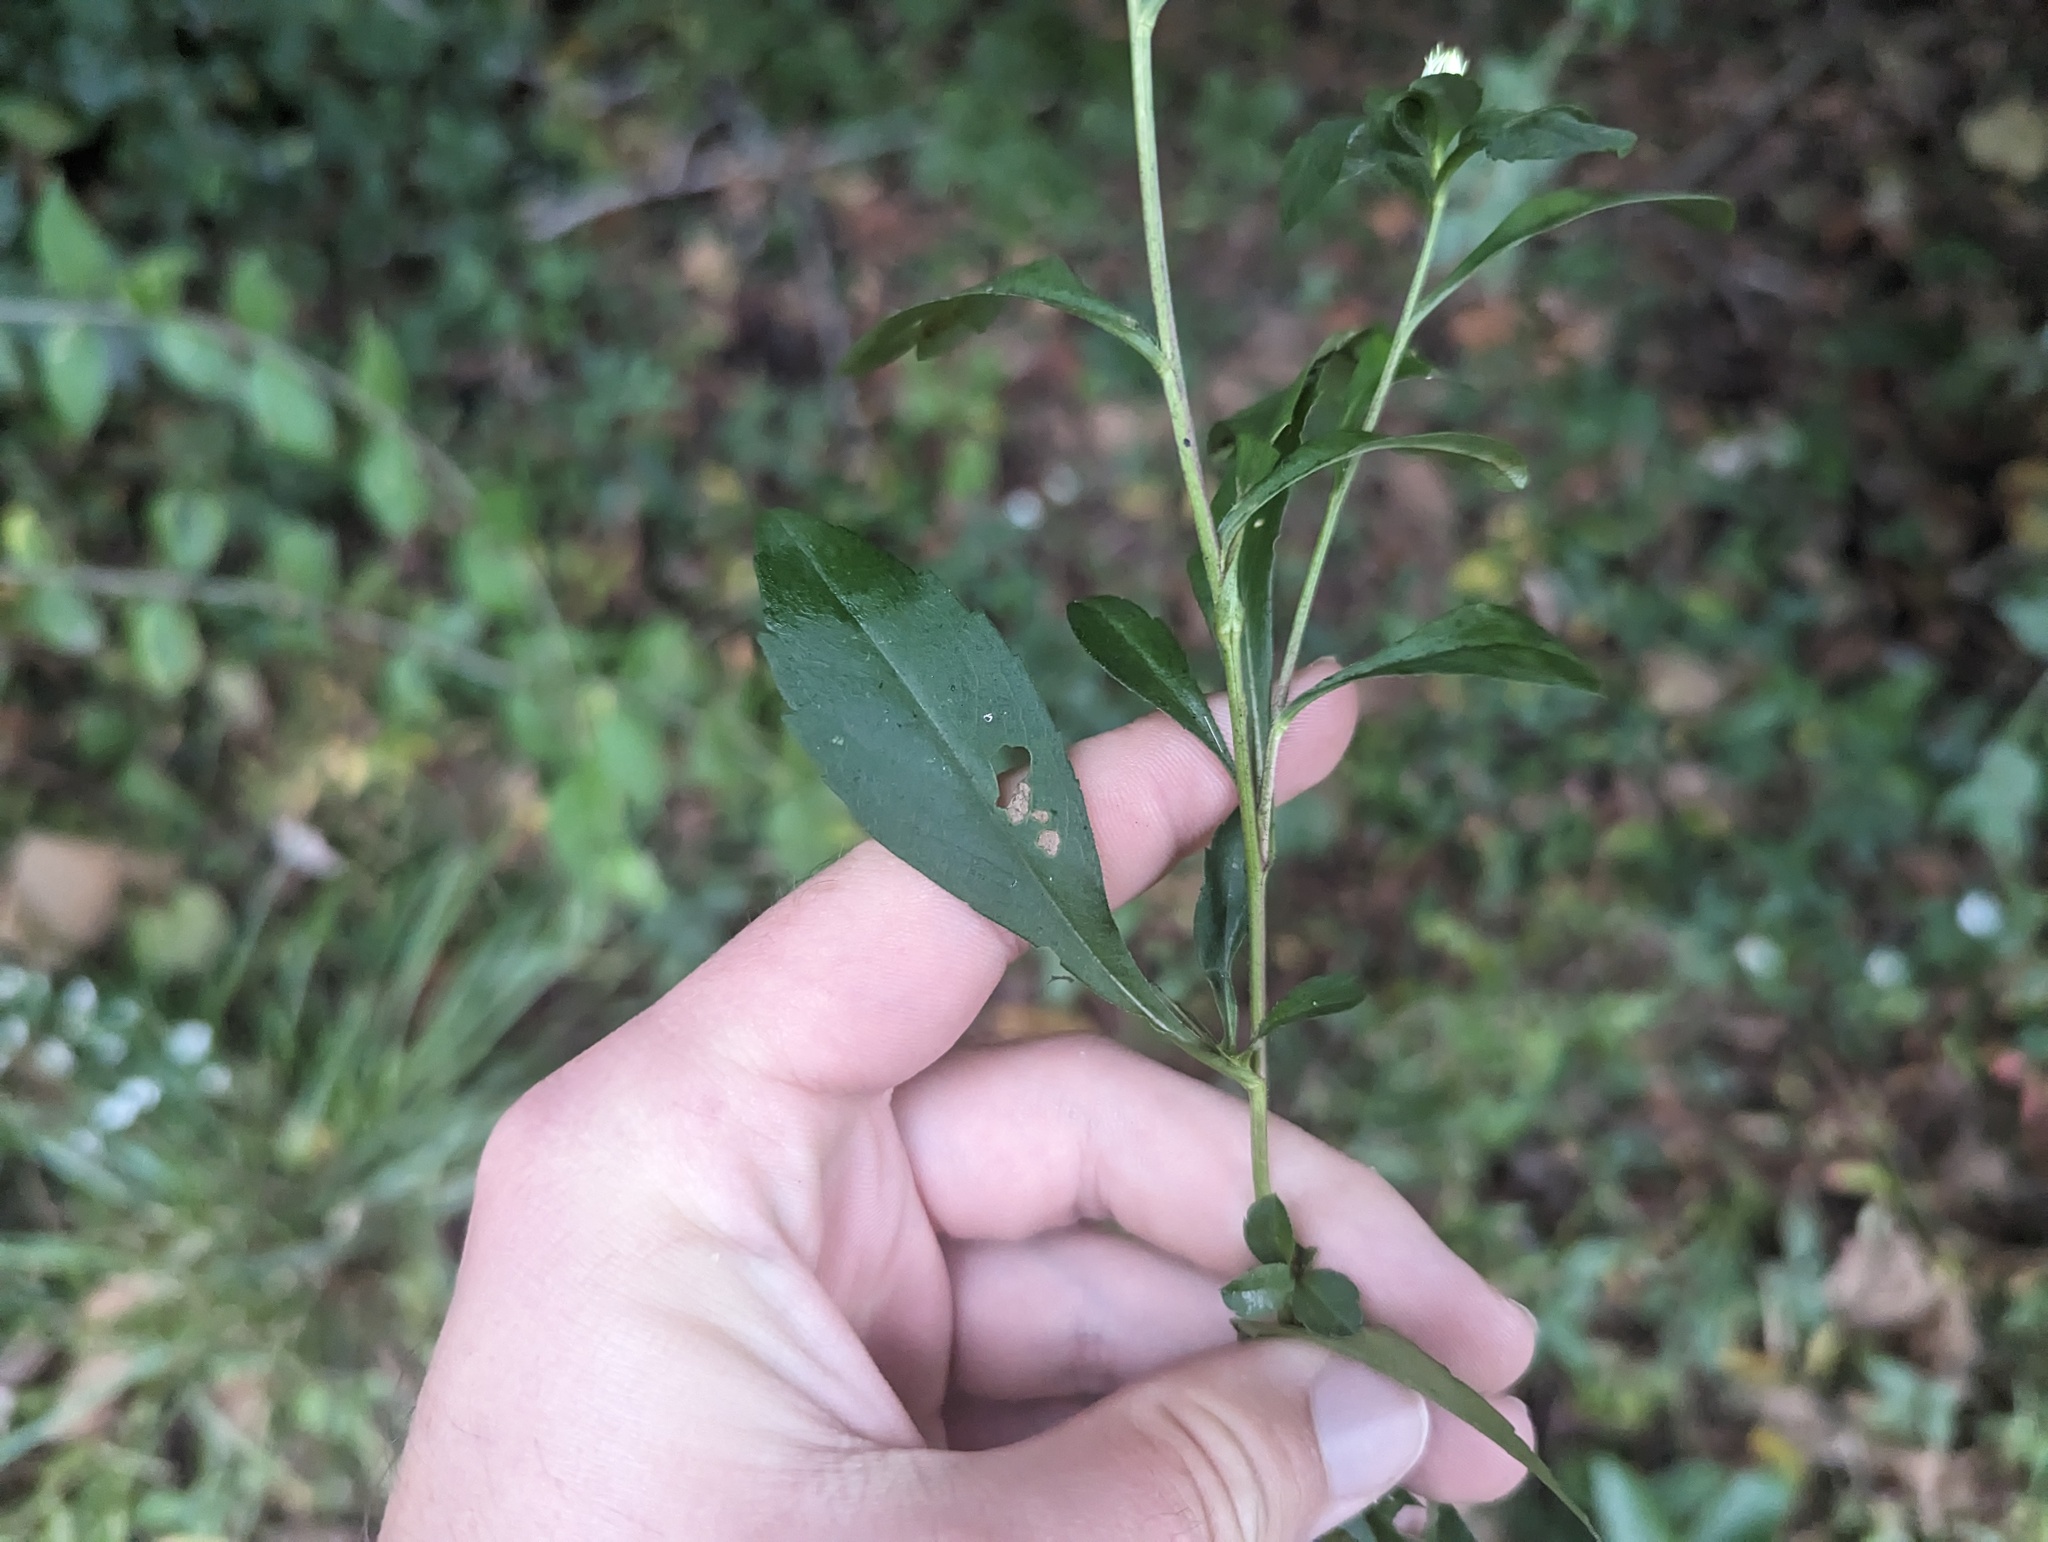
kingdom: Plantae
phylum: Tracheophyta
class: Magnoliopsida
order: Asterales
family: Asteraceae
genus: Symphyotrichum
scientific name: Symphyotrichum lanceolatum
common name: Panicled aster
